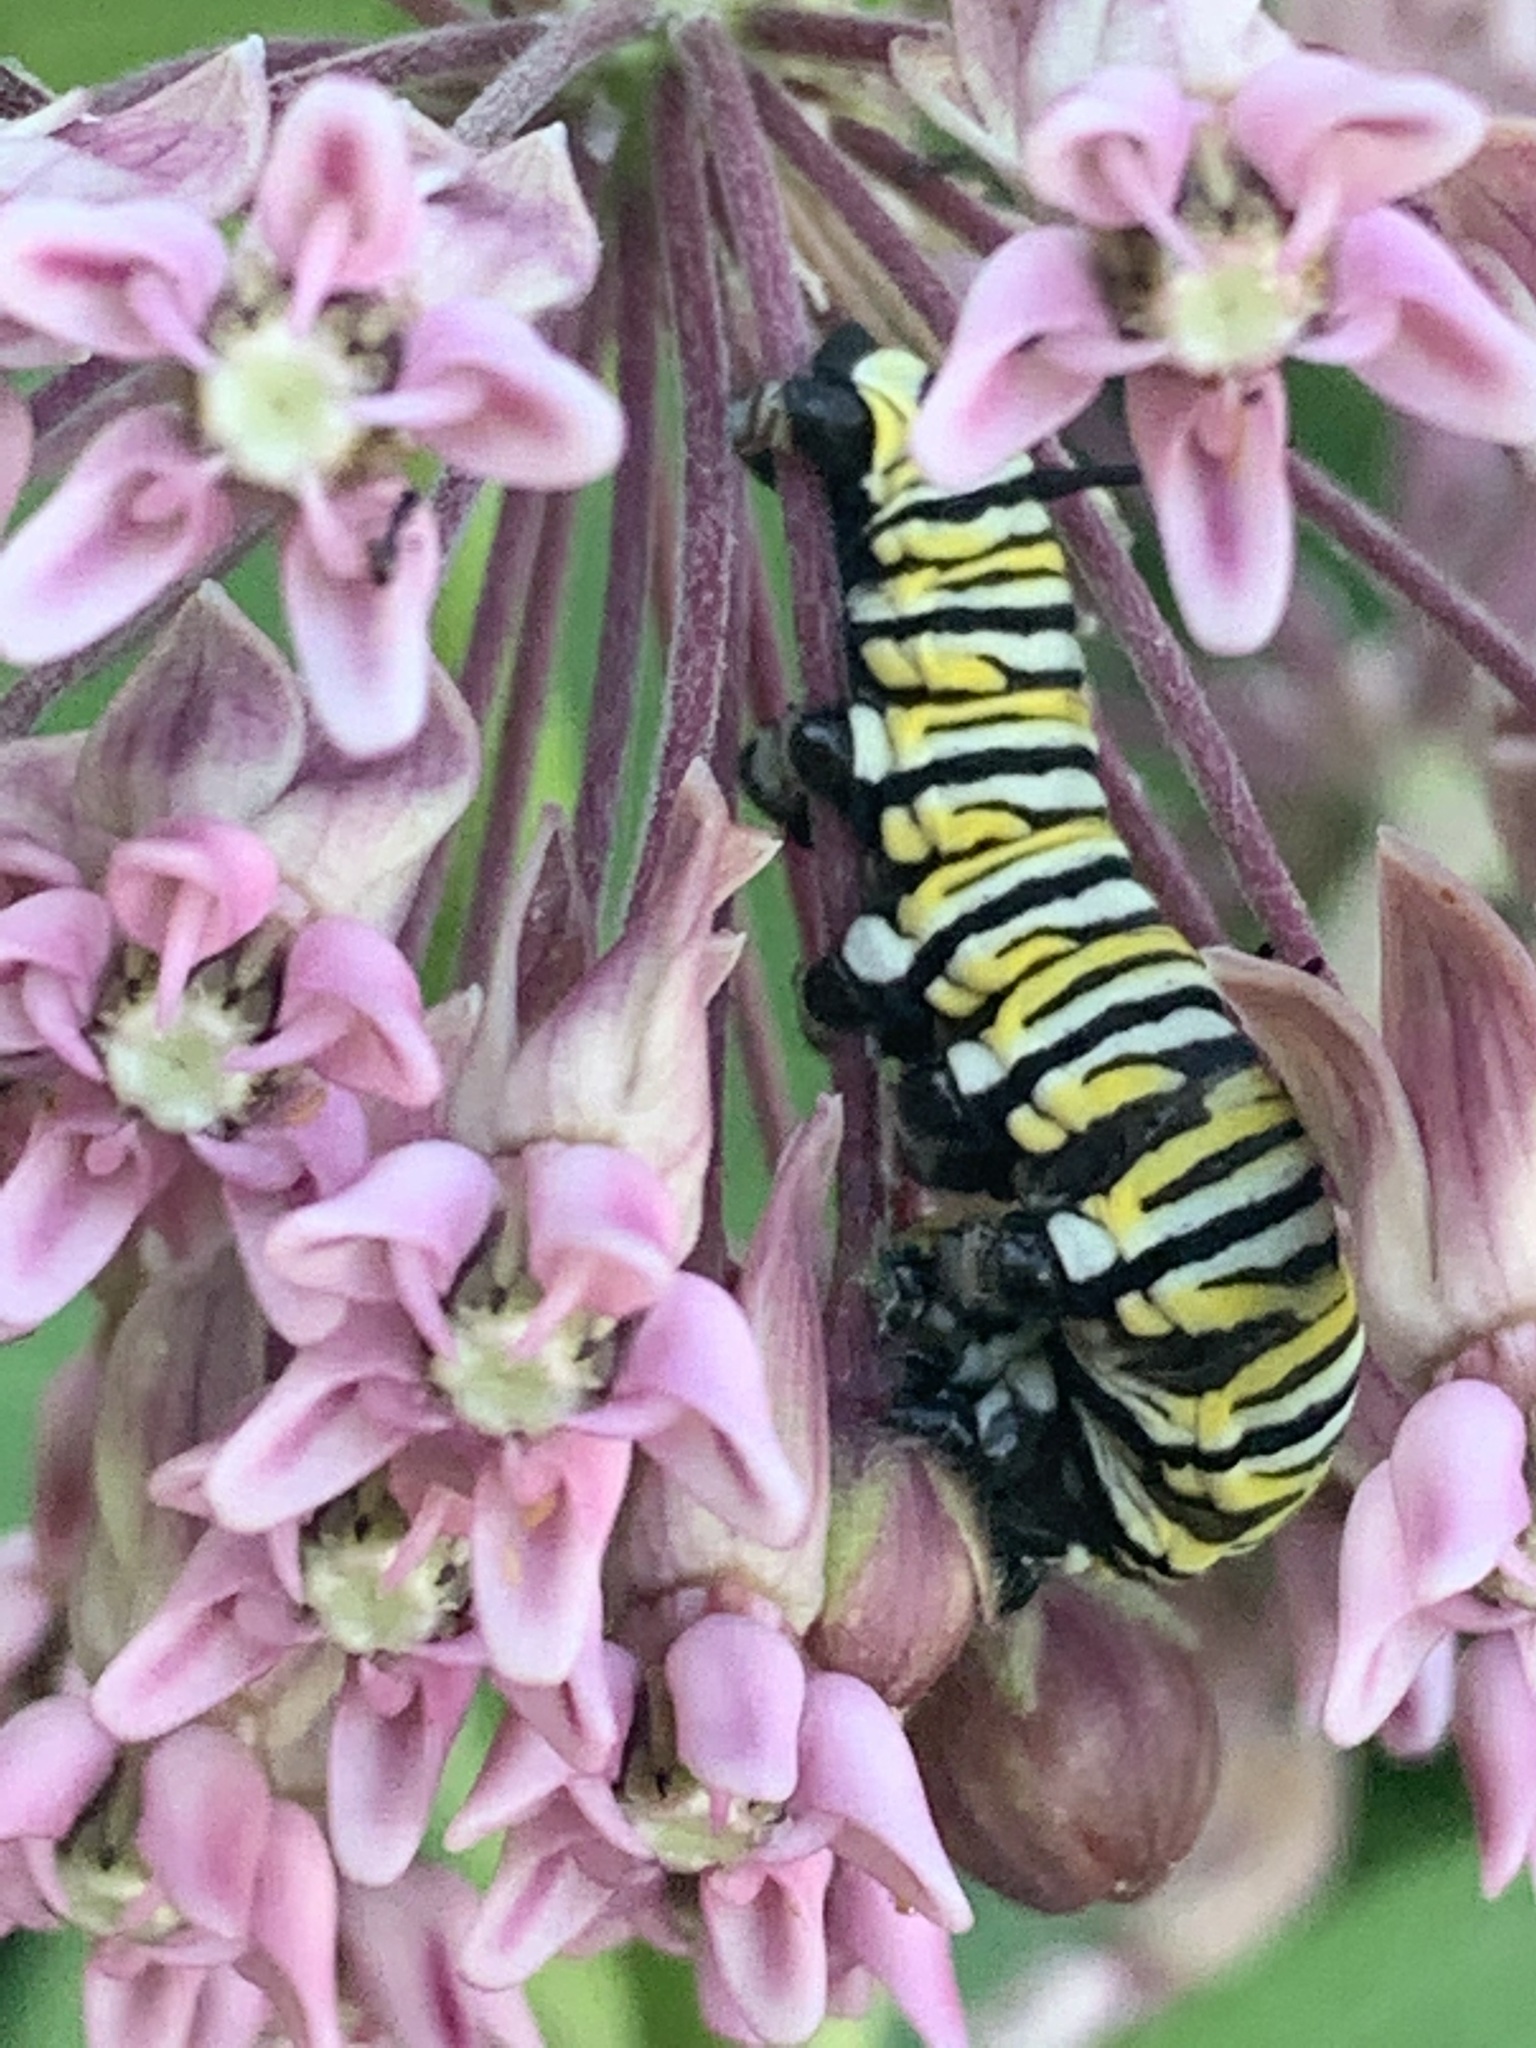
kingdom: Animalia
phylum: Arthropoda
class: Insecta
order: Lepidoptera
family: Nymphalidae
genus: Danaus
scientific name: Danaus plexippus
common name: Monarch
